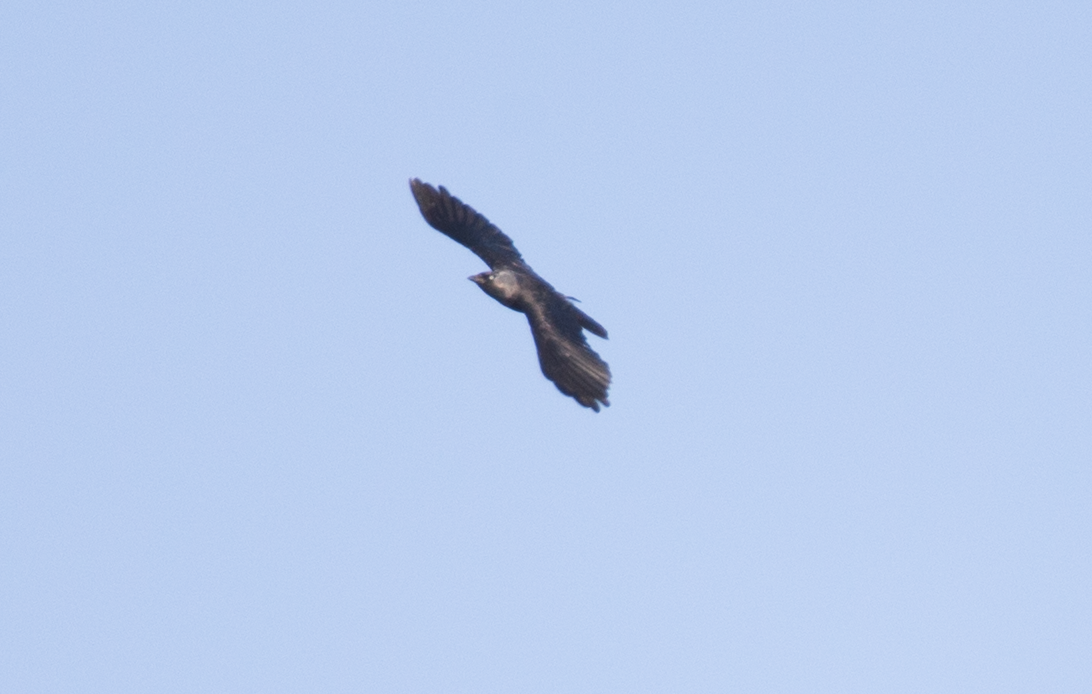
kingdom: Animalia
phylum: Chordata
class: Aves
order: Passeriformes
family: Corvidae
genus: Coloeus
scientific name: Coloeus monedula
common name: Western jackdaw
